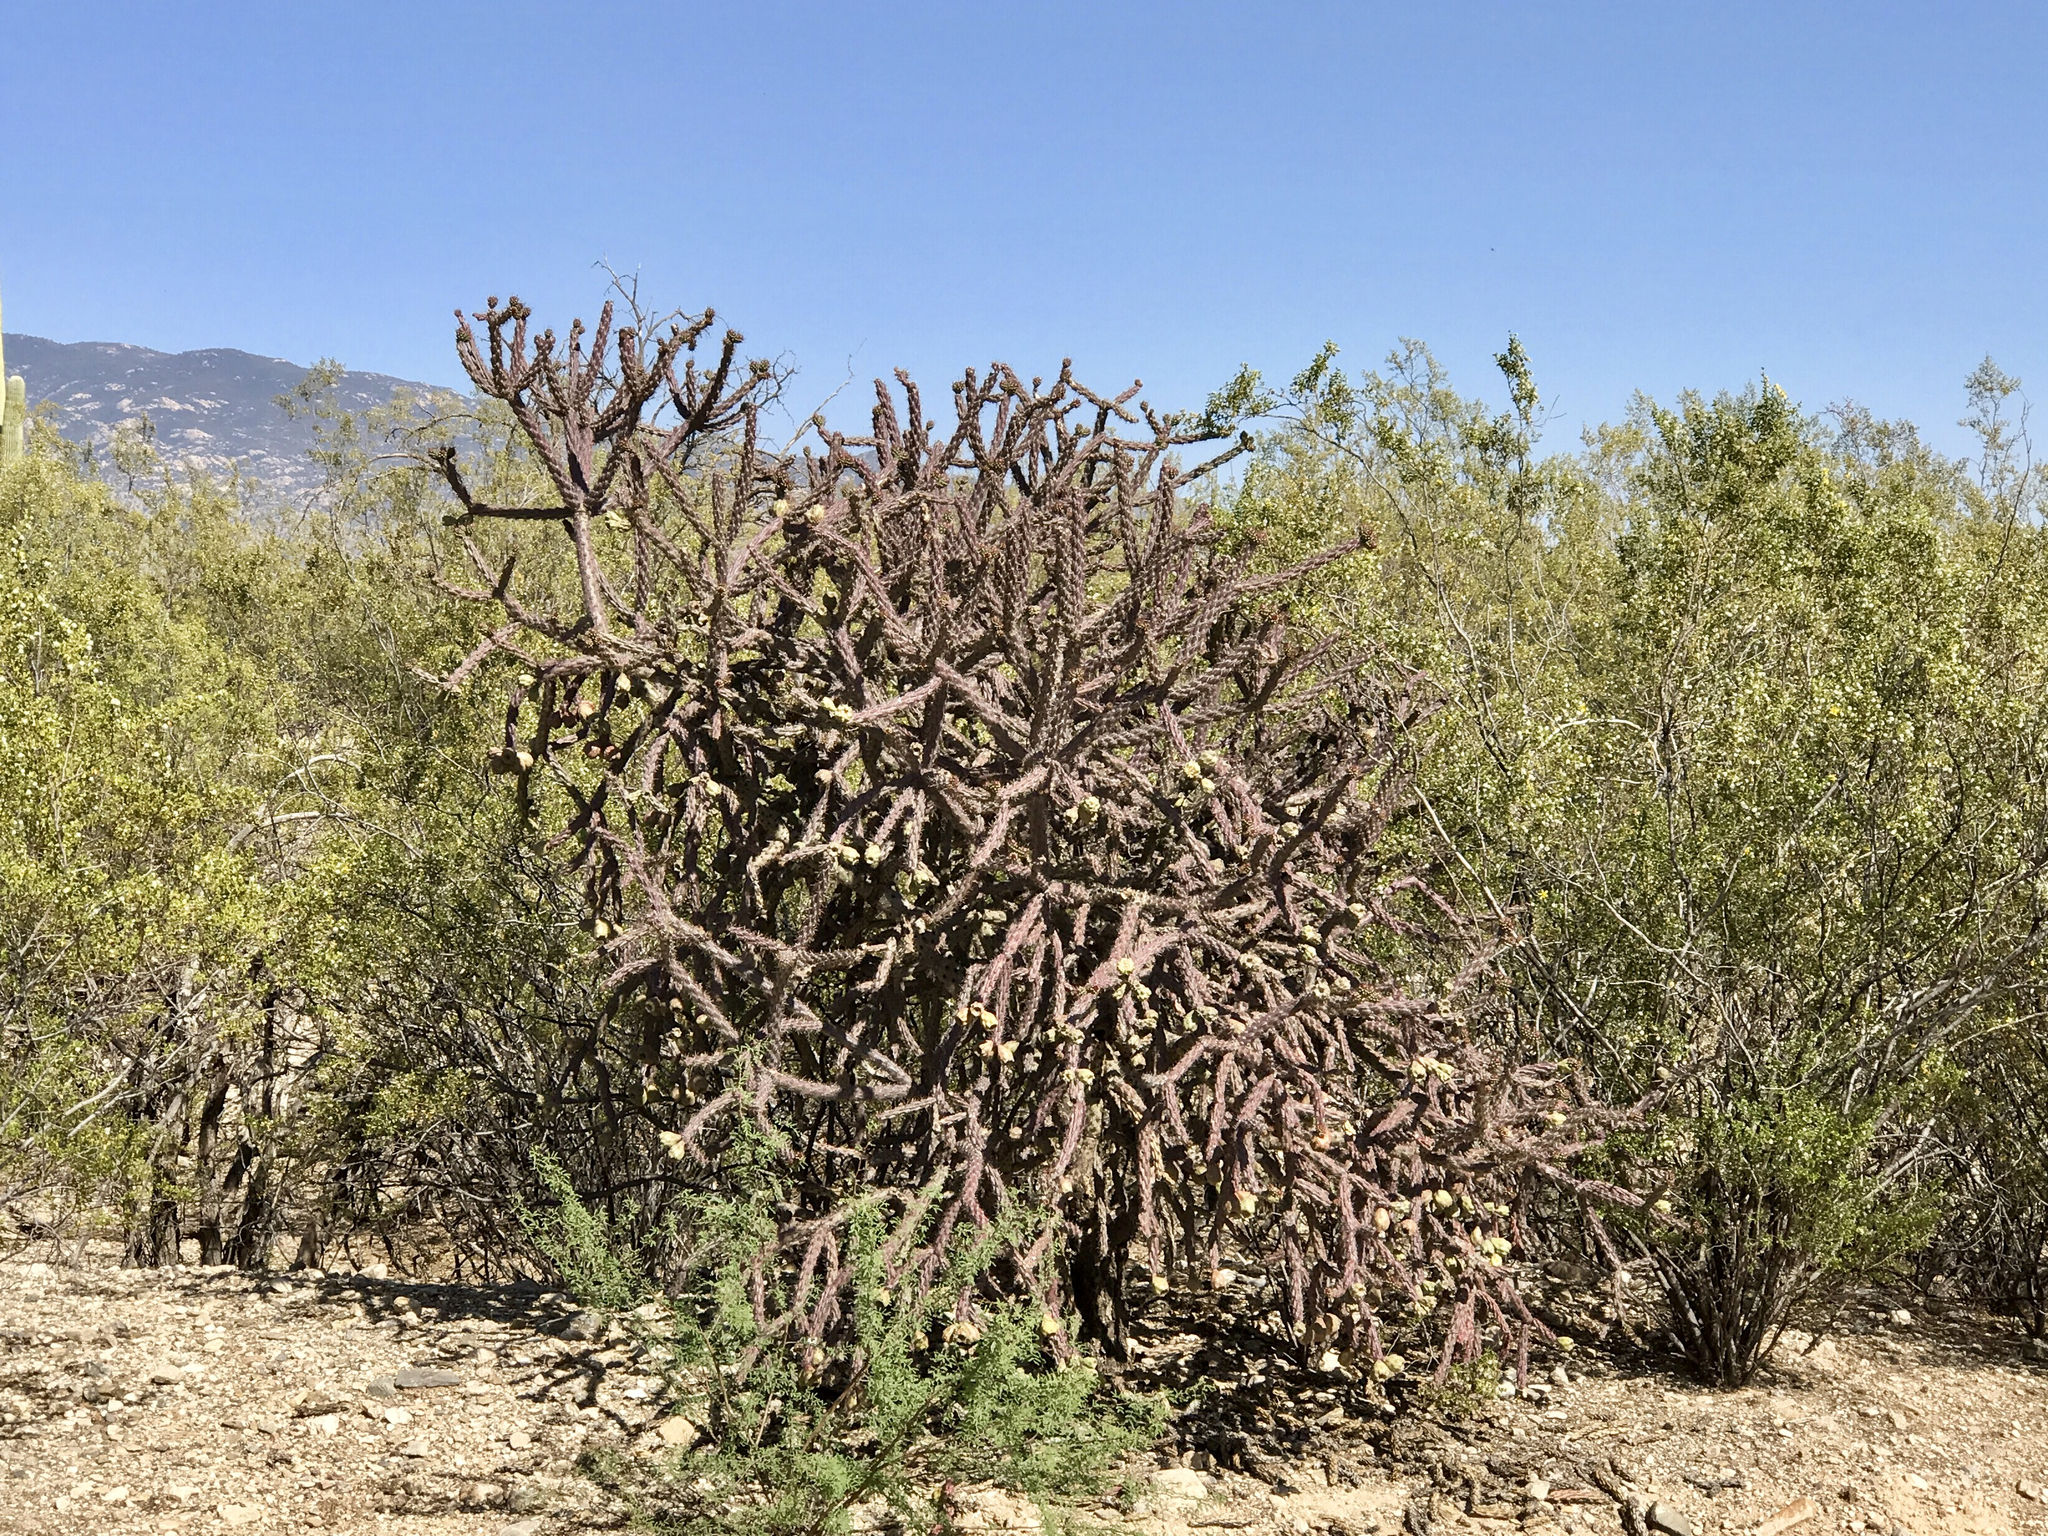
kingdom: Plantae
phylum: Tracheophyta
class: Magnoliopsida
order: Caryophyllales
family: Cactaceae
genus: Cylindropuntia
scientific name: Cylindropuntia thurberi
